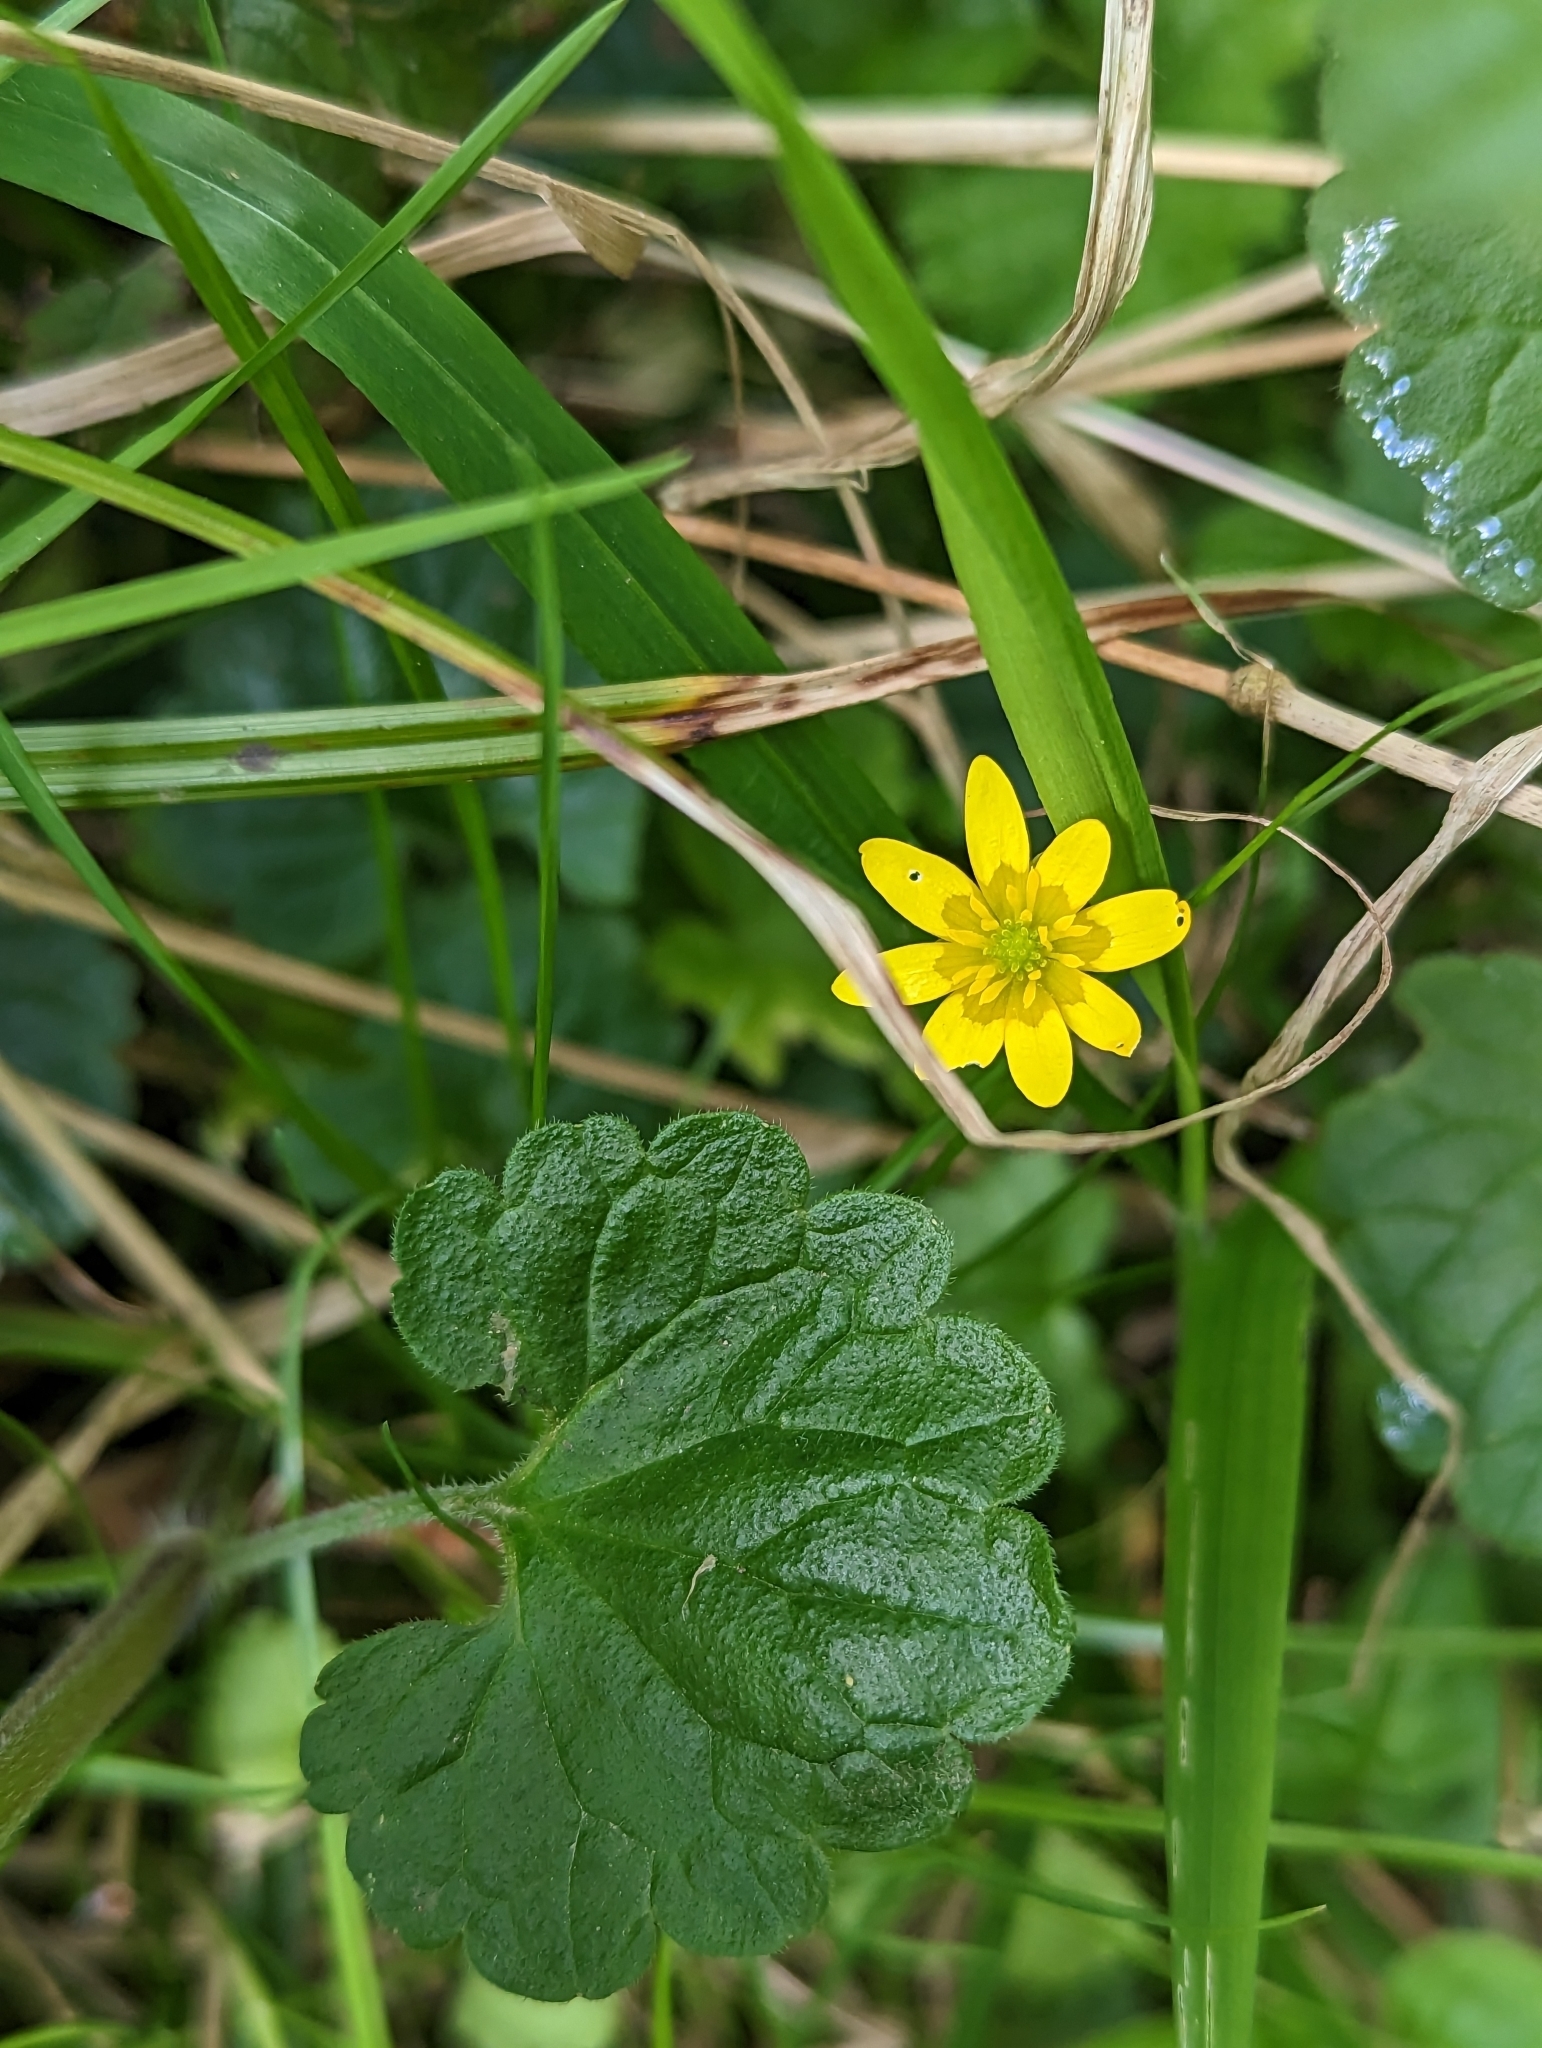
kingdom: Plantae
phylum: Tracheophyta
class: Magnoliopsida
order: Ranunculales
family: Ranunculaceae
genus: Ficaria
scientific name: Ficaria verna
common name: Lesser celandine
